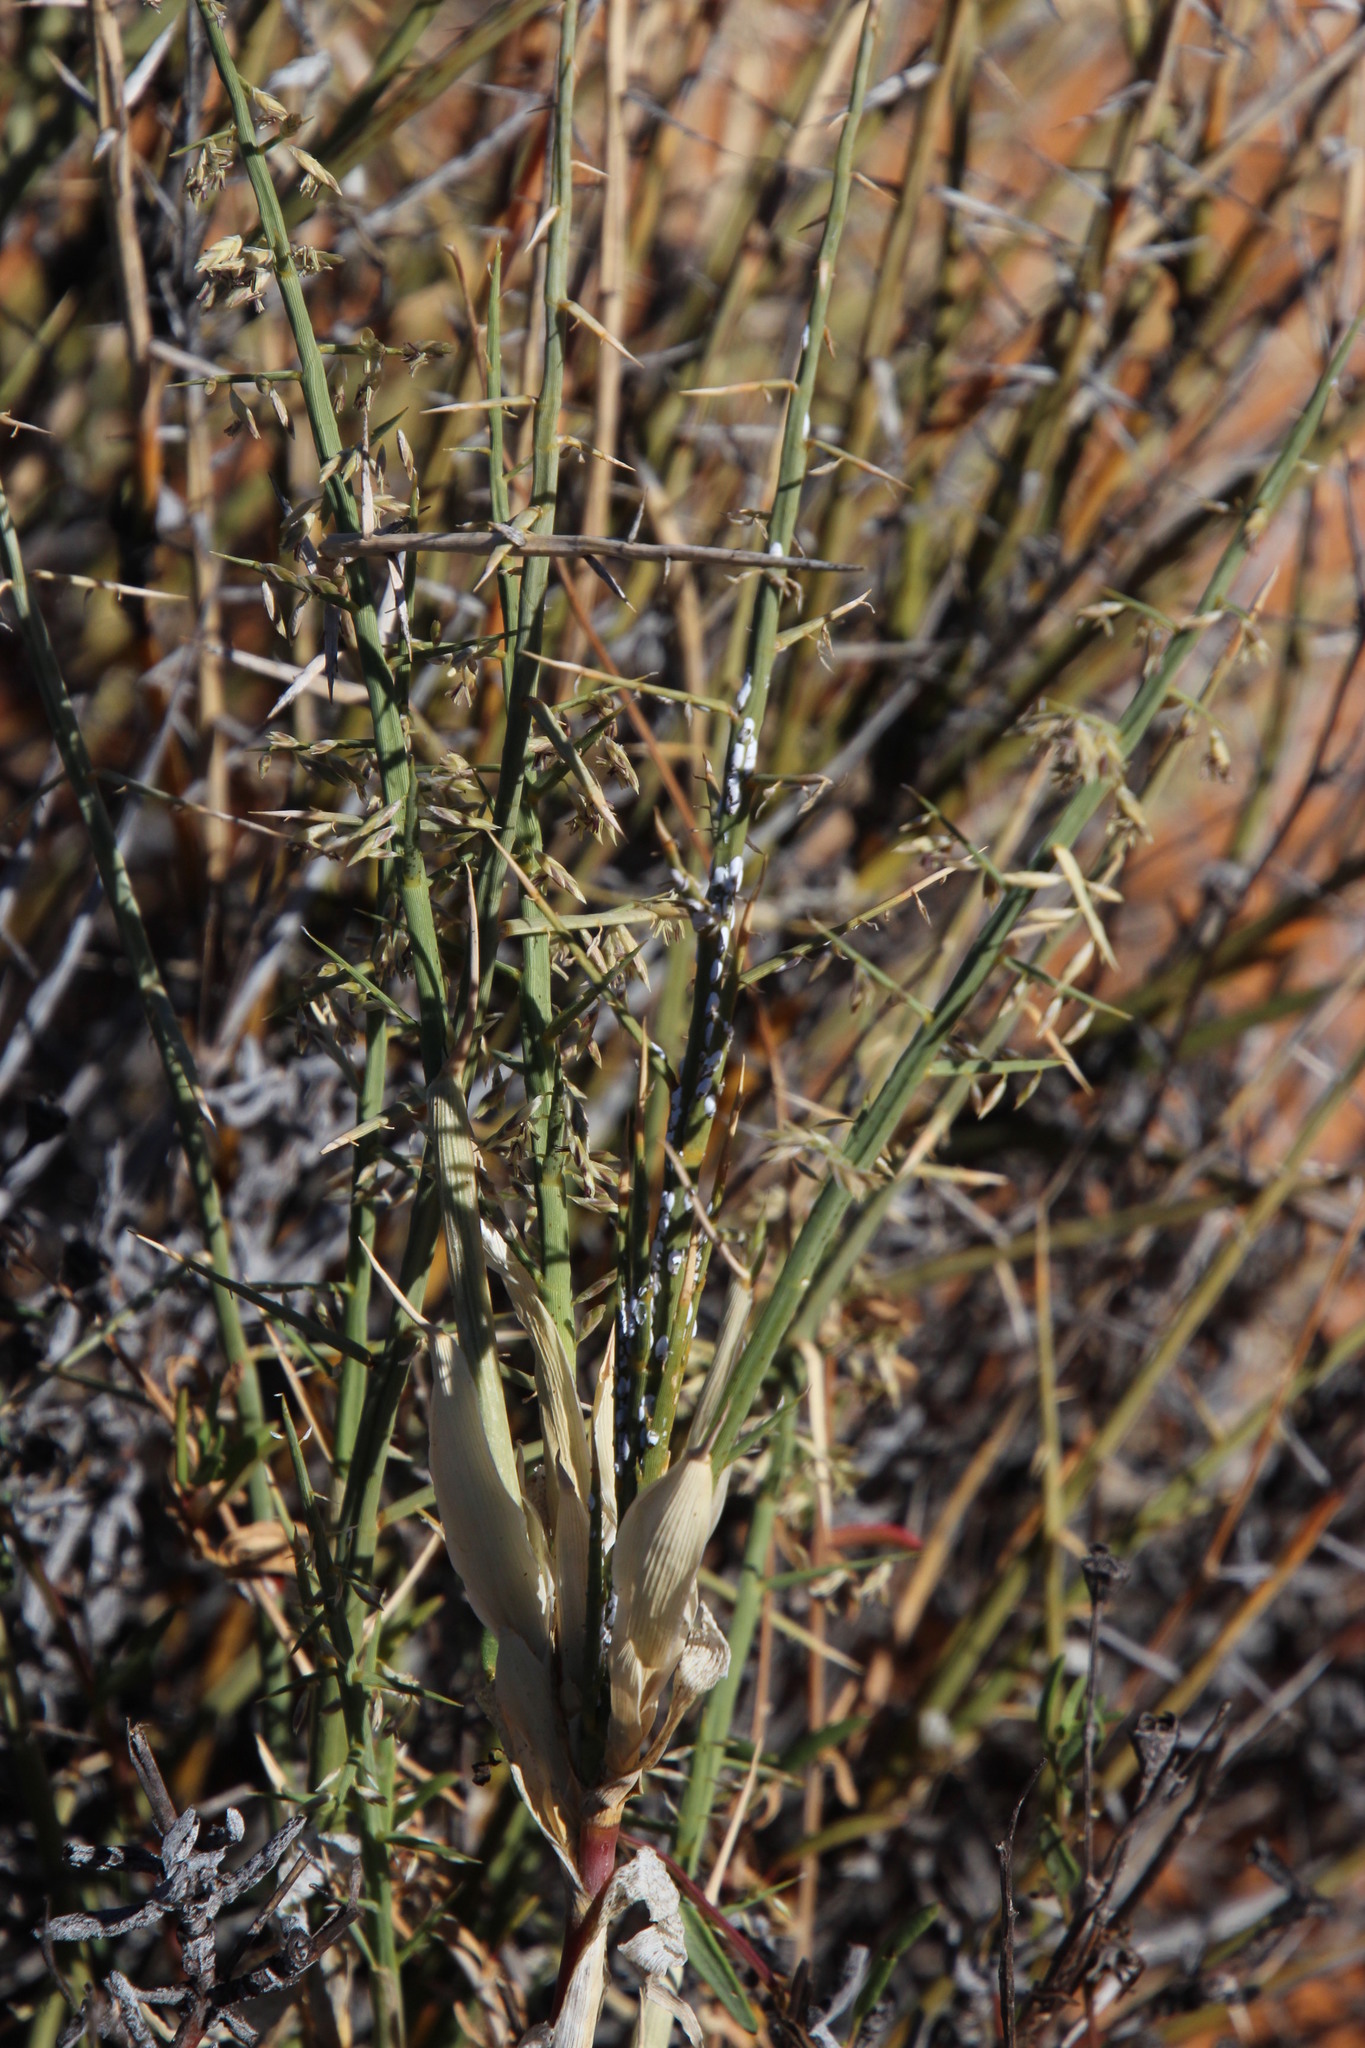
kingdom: Plantae
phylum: Tracheophyta
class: Liliopsida
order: Poales
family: Poaceae
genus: Cladoraphis
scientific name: Cladoraphis spinosa
